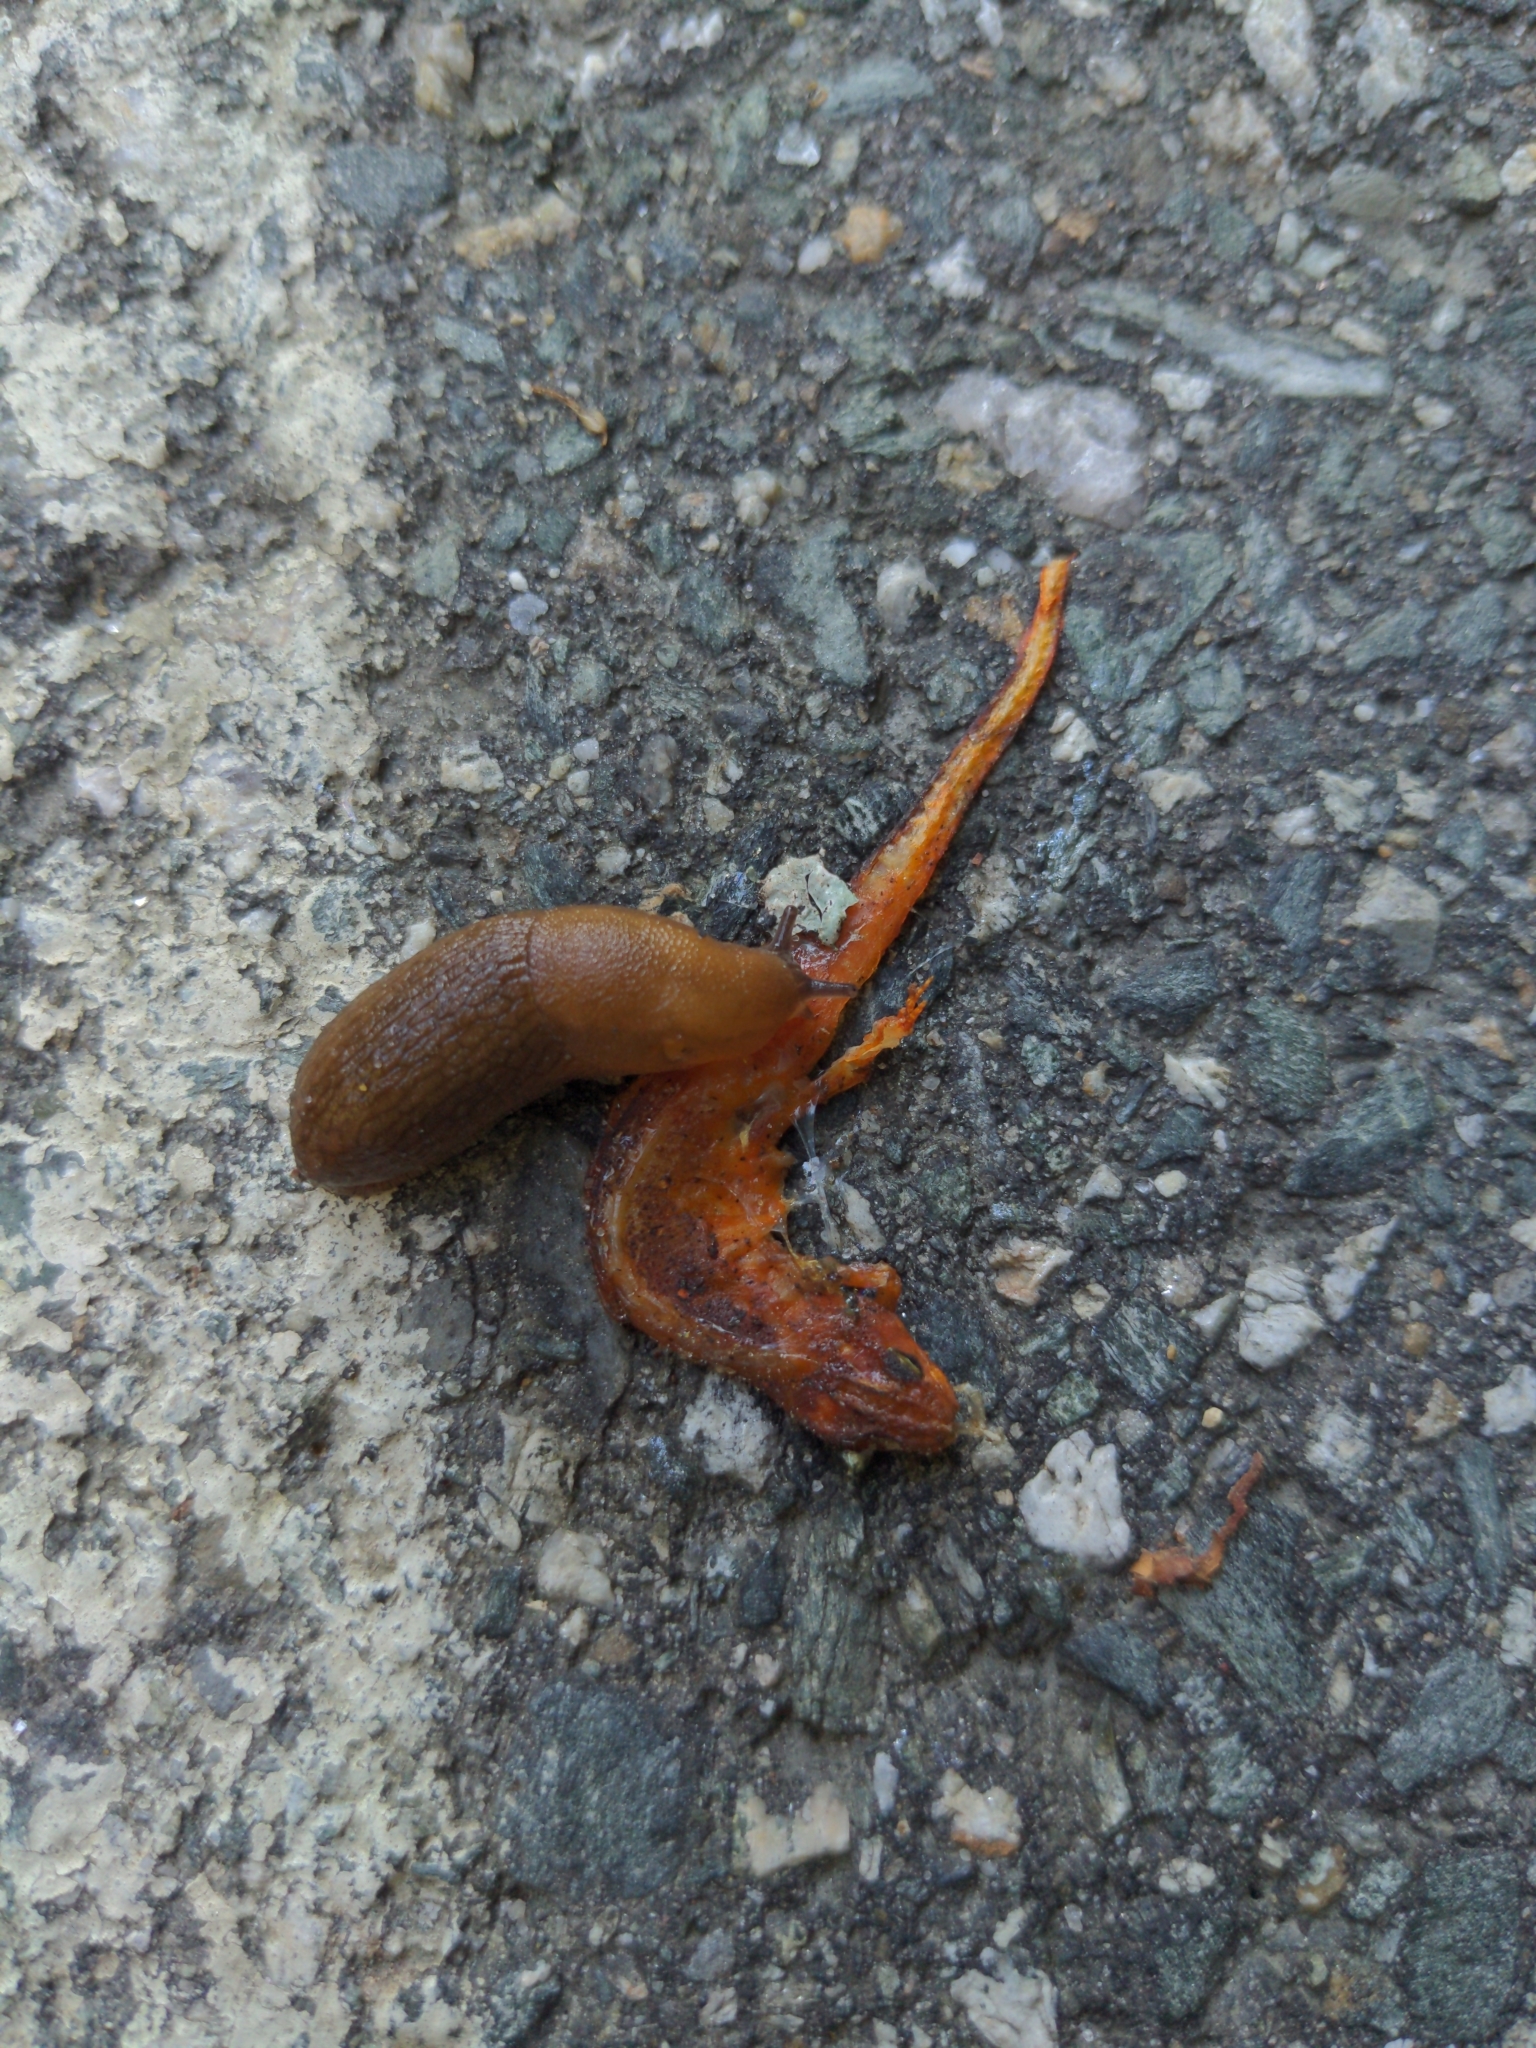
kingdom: Animalia
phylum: Chordata
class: Amphibia
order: Caudata
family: Salamandridae
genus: Notophthalmus
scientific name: Notophthalmus viridescens
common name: Eastern newt
